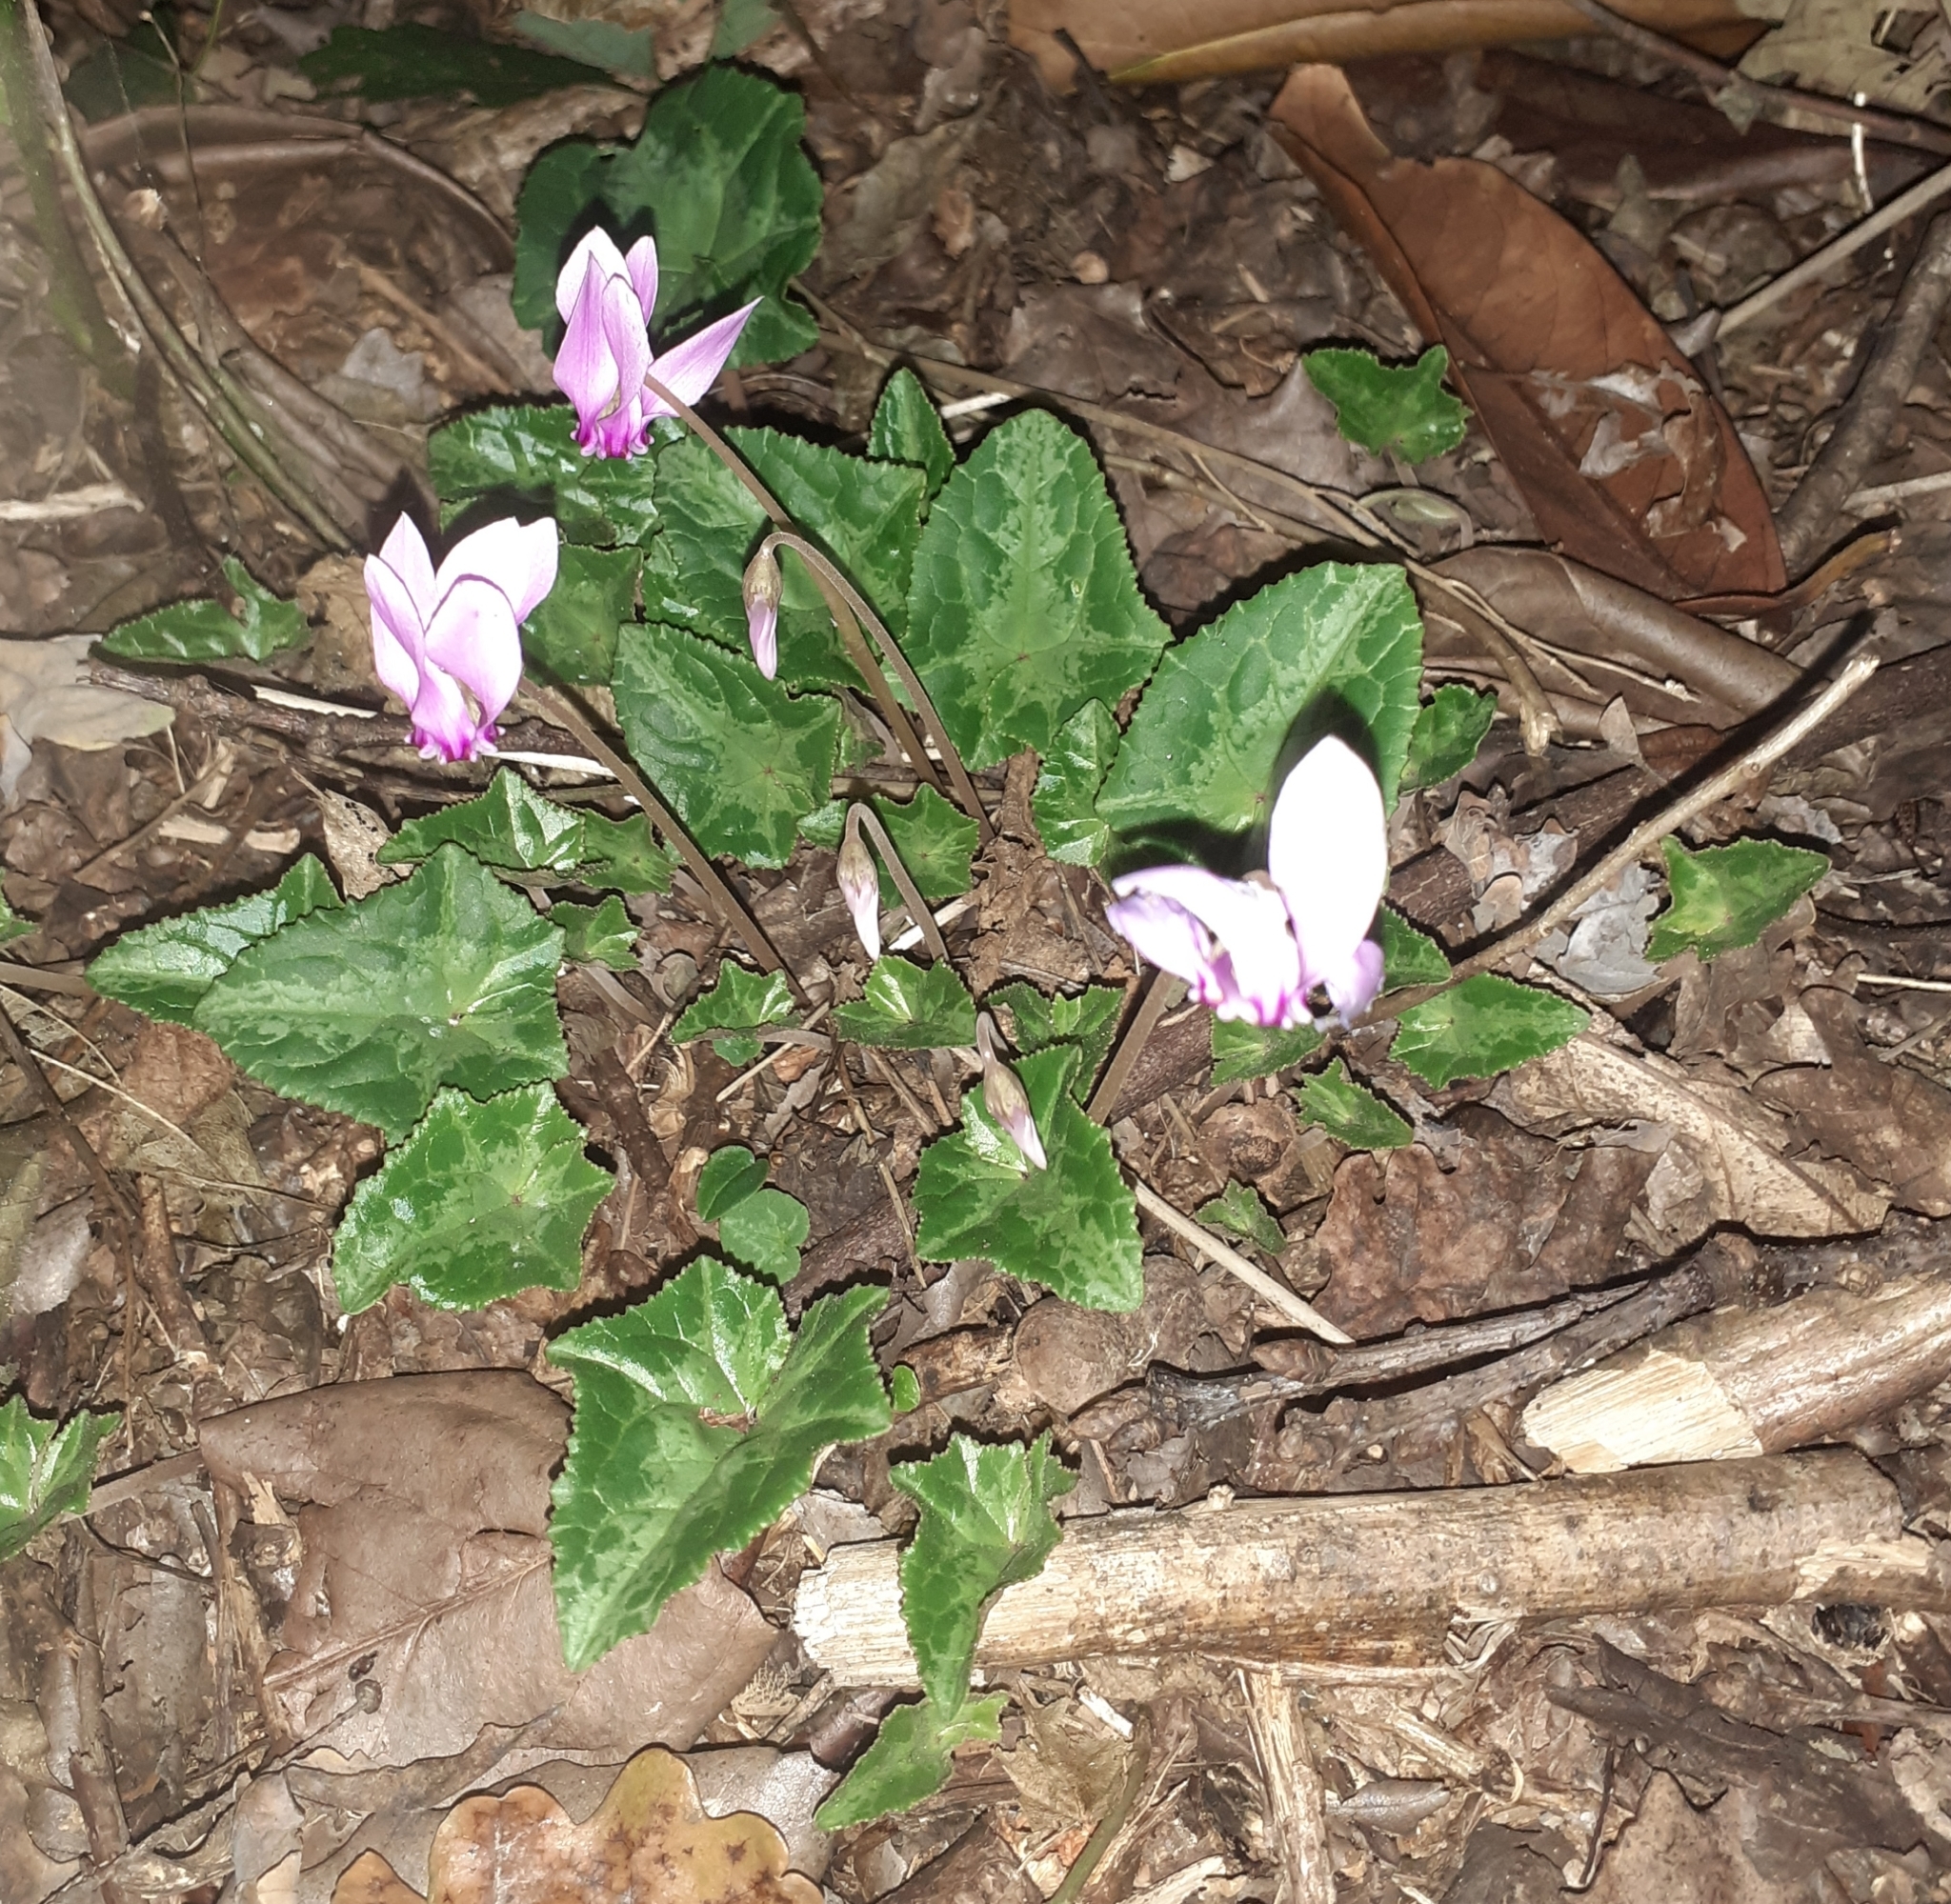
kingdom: Plantae
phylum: Tracheophyta
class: Magnoliopsida
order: Ericales
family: Primulaceae
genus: Cyclamen
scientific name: Cyclamen hederifolium
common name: Sowbread
